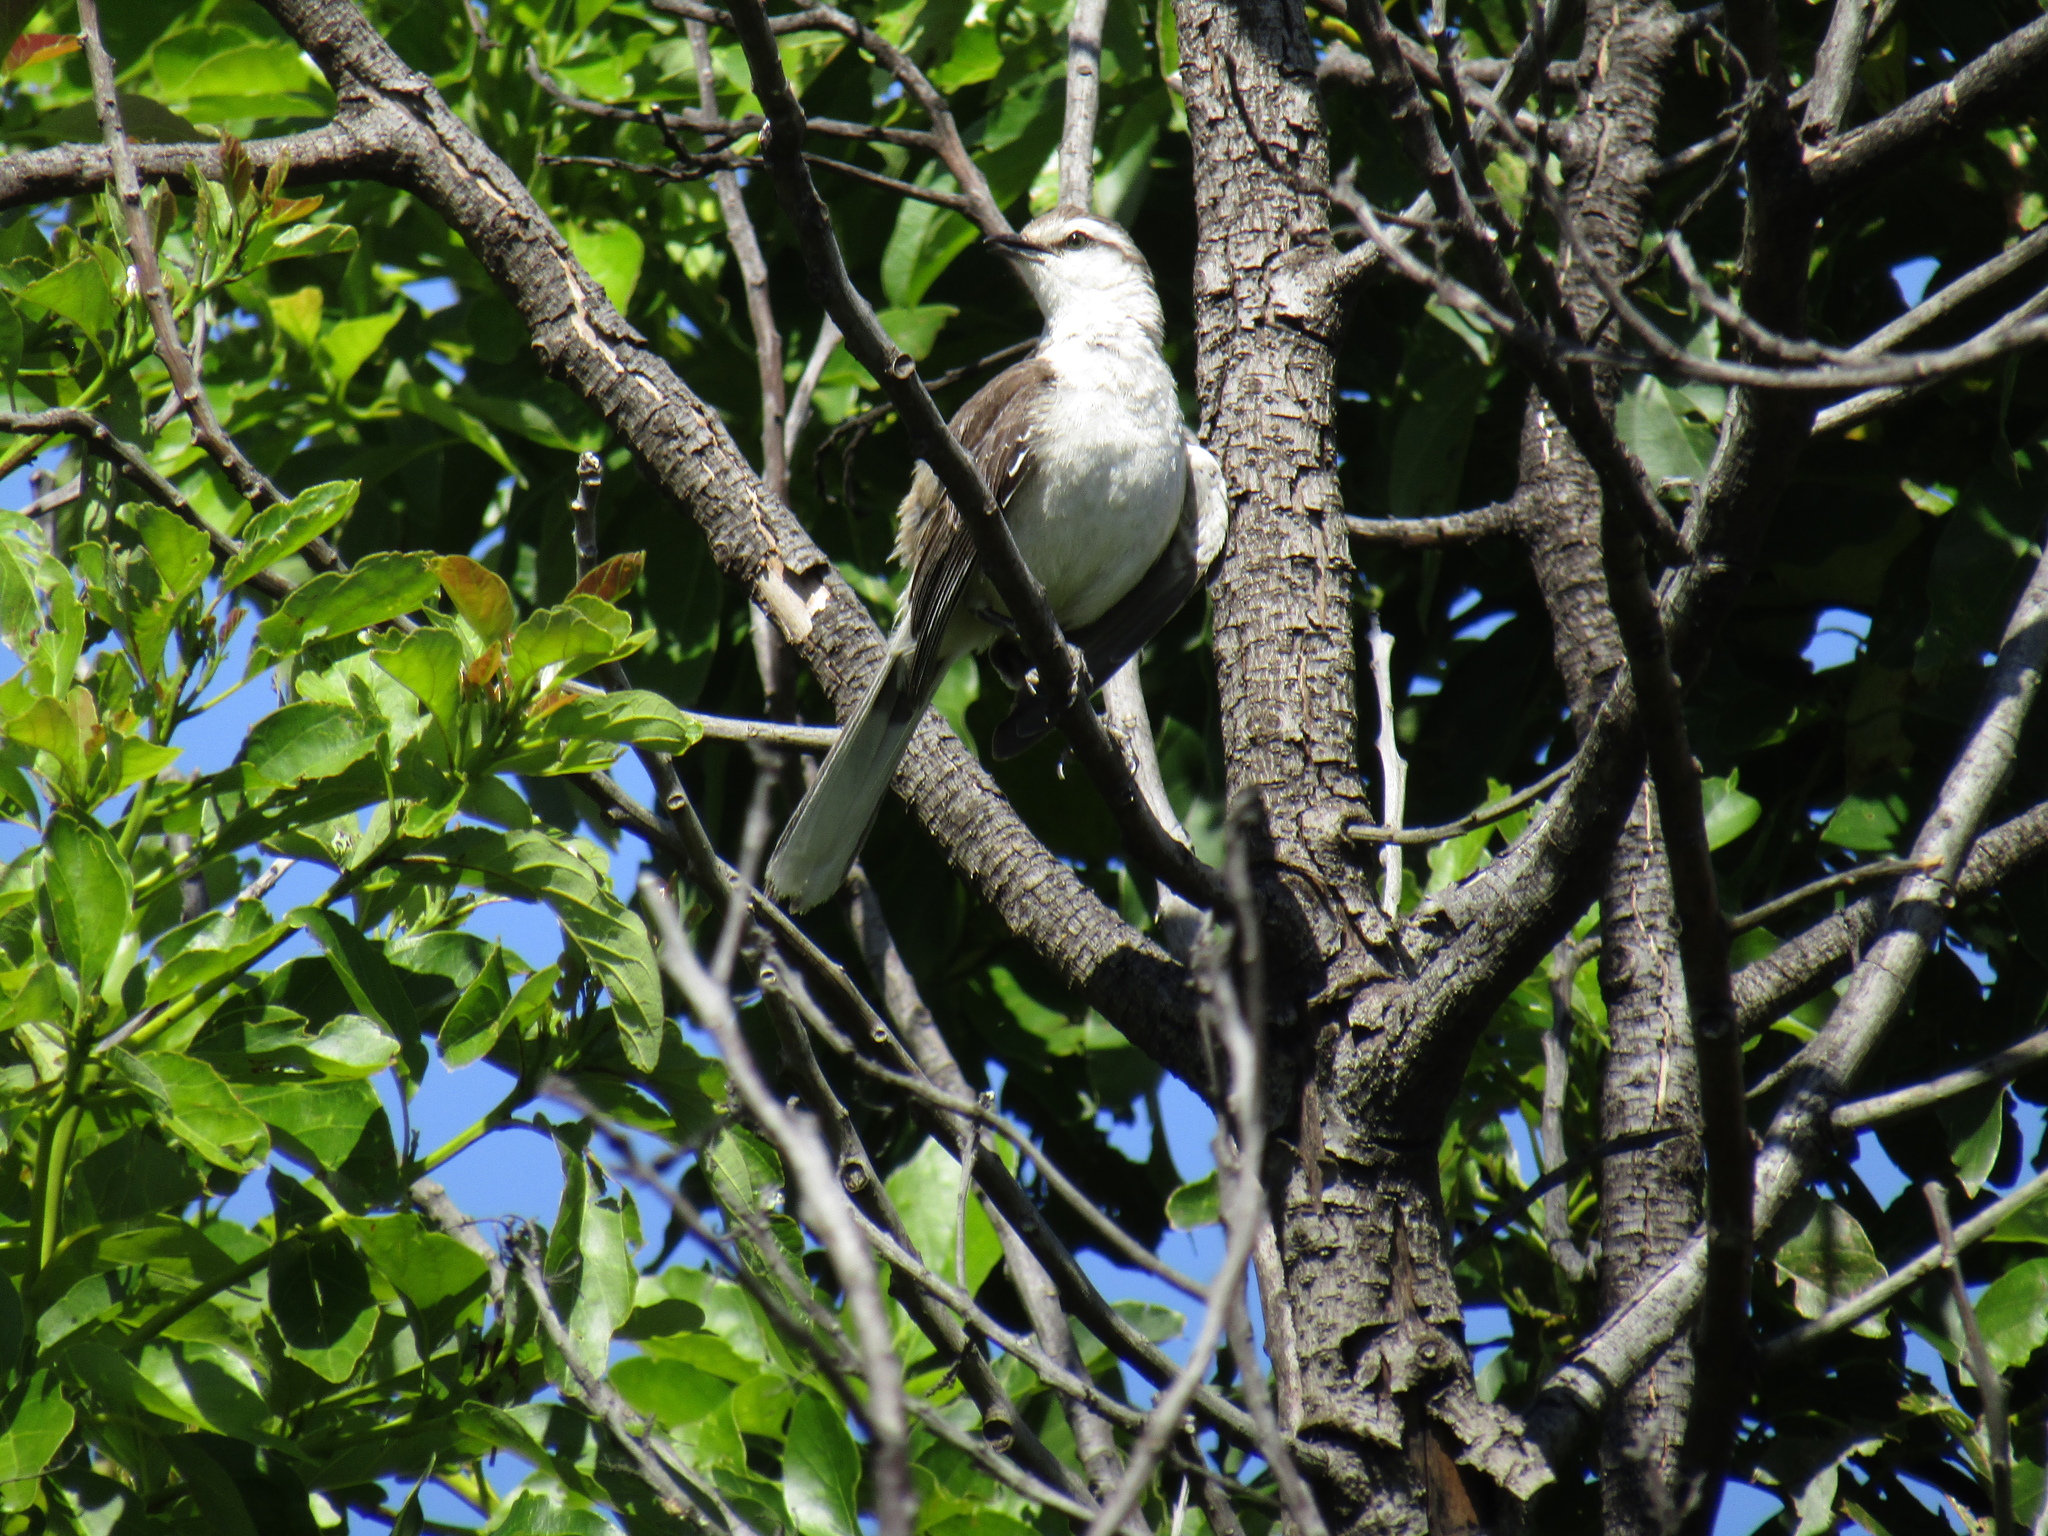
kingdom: Animalia
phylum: Chordata
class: Aves
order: Passeriformes
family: Mimidae
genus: Mimus
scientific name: Mimus saturninus
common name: Chalk-browed mockingbird
